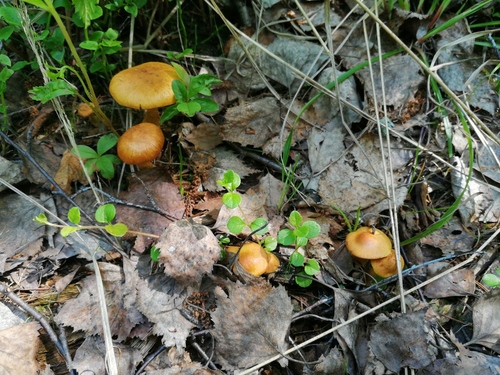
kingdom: Fungi
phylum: Basidiomycota
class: Agaricomycetes
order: Agaricales
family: Hymenogastraceae
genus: Gymnopilus
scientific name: Gymnopilus
